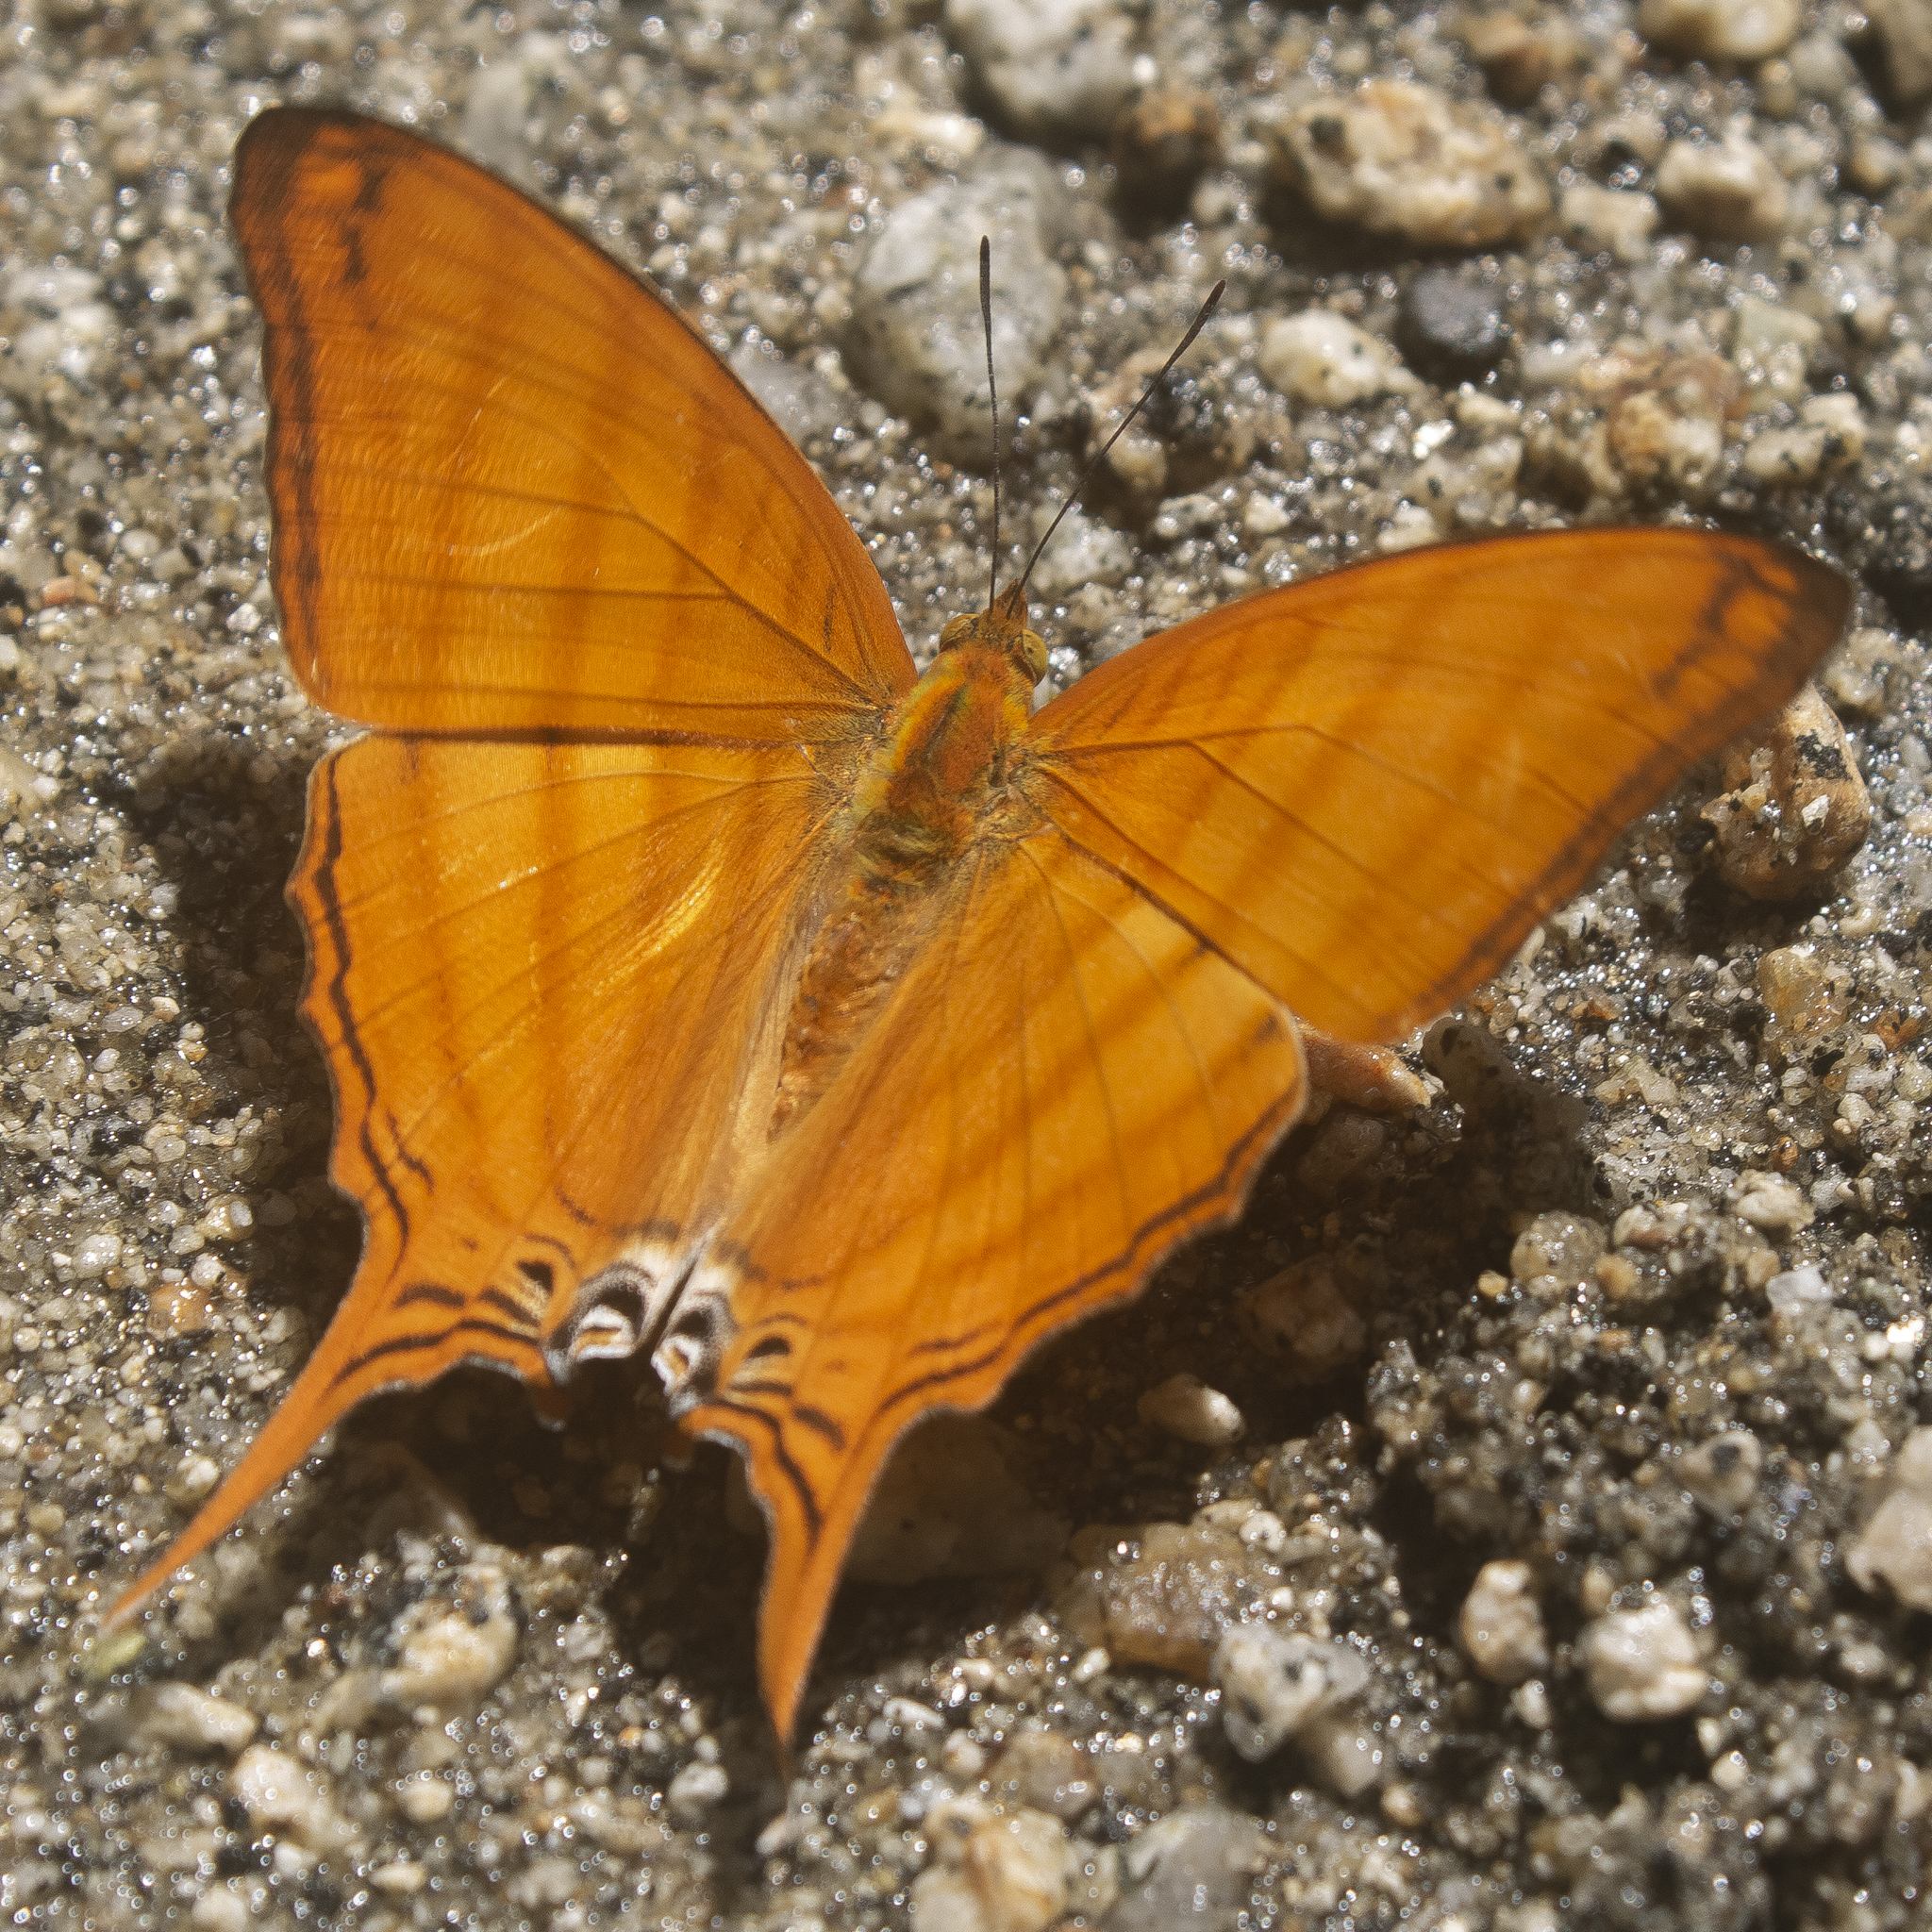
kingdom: Animalia
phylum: Arthropoda
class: Insecta
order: Lepidoptera
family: Nymphalidae
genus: Marpesia
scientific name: Marpesia berania
